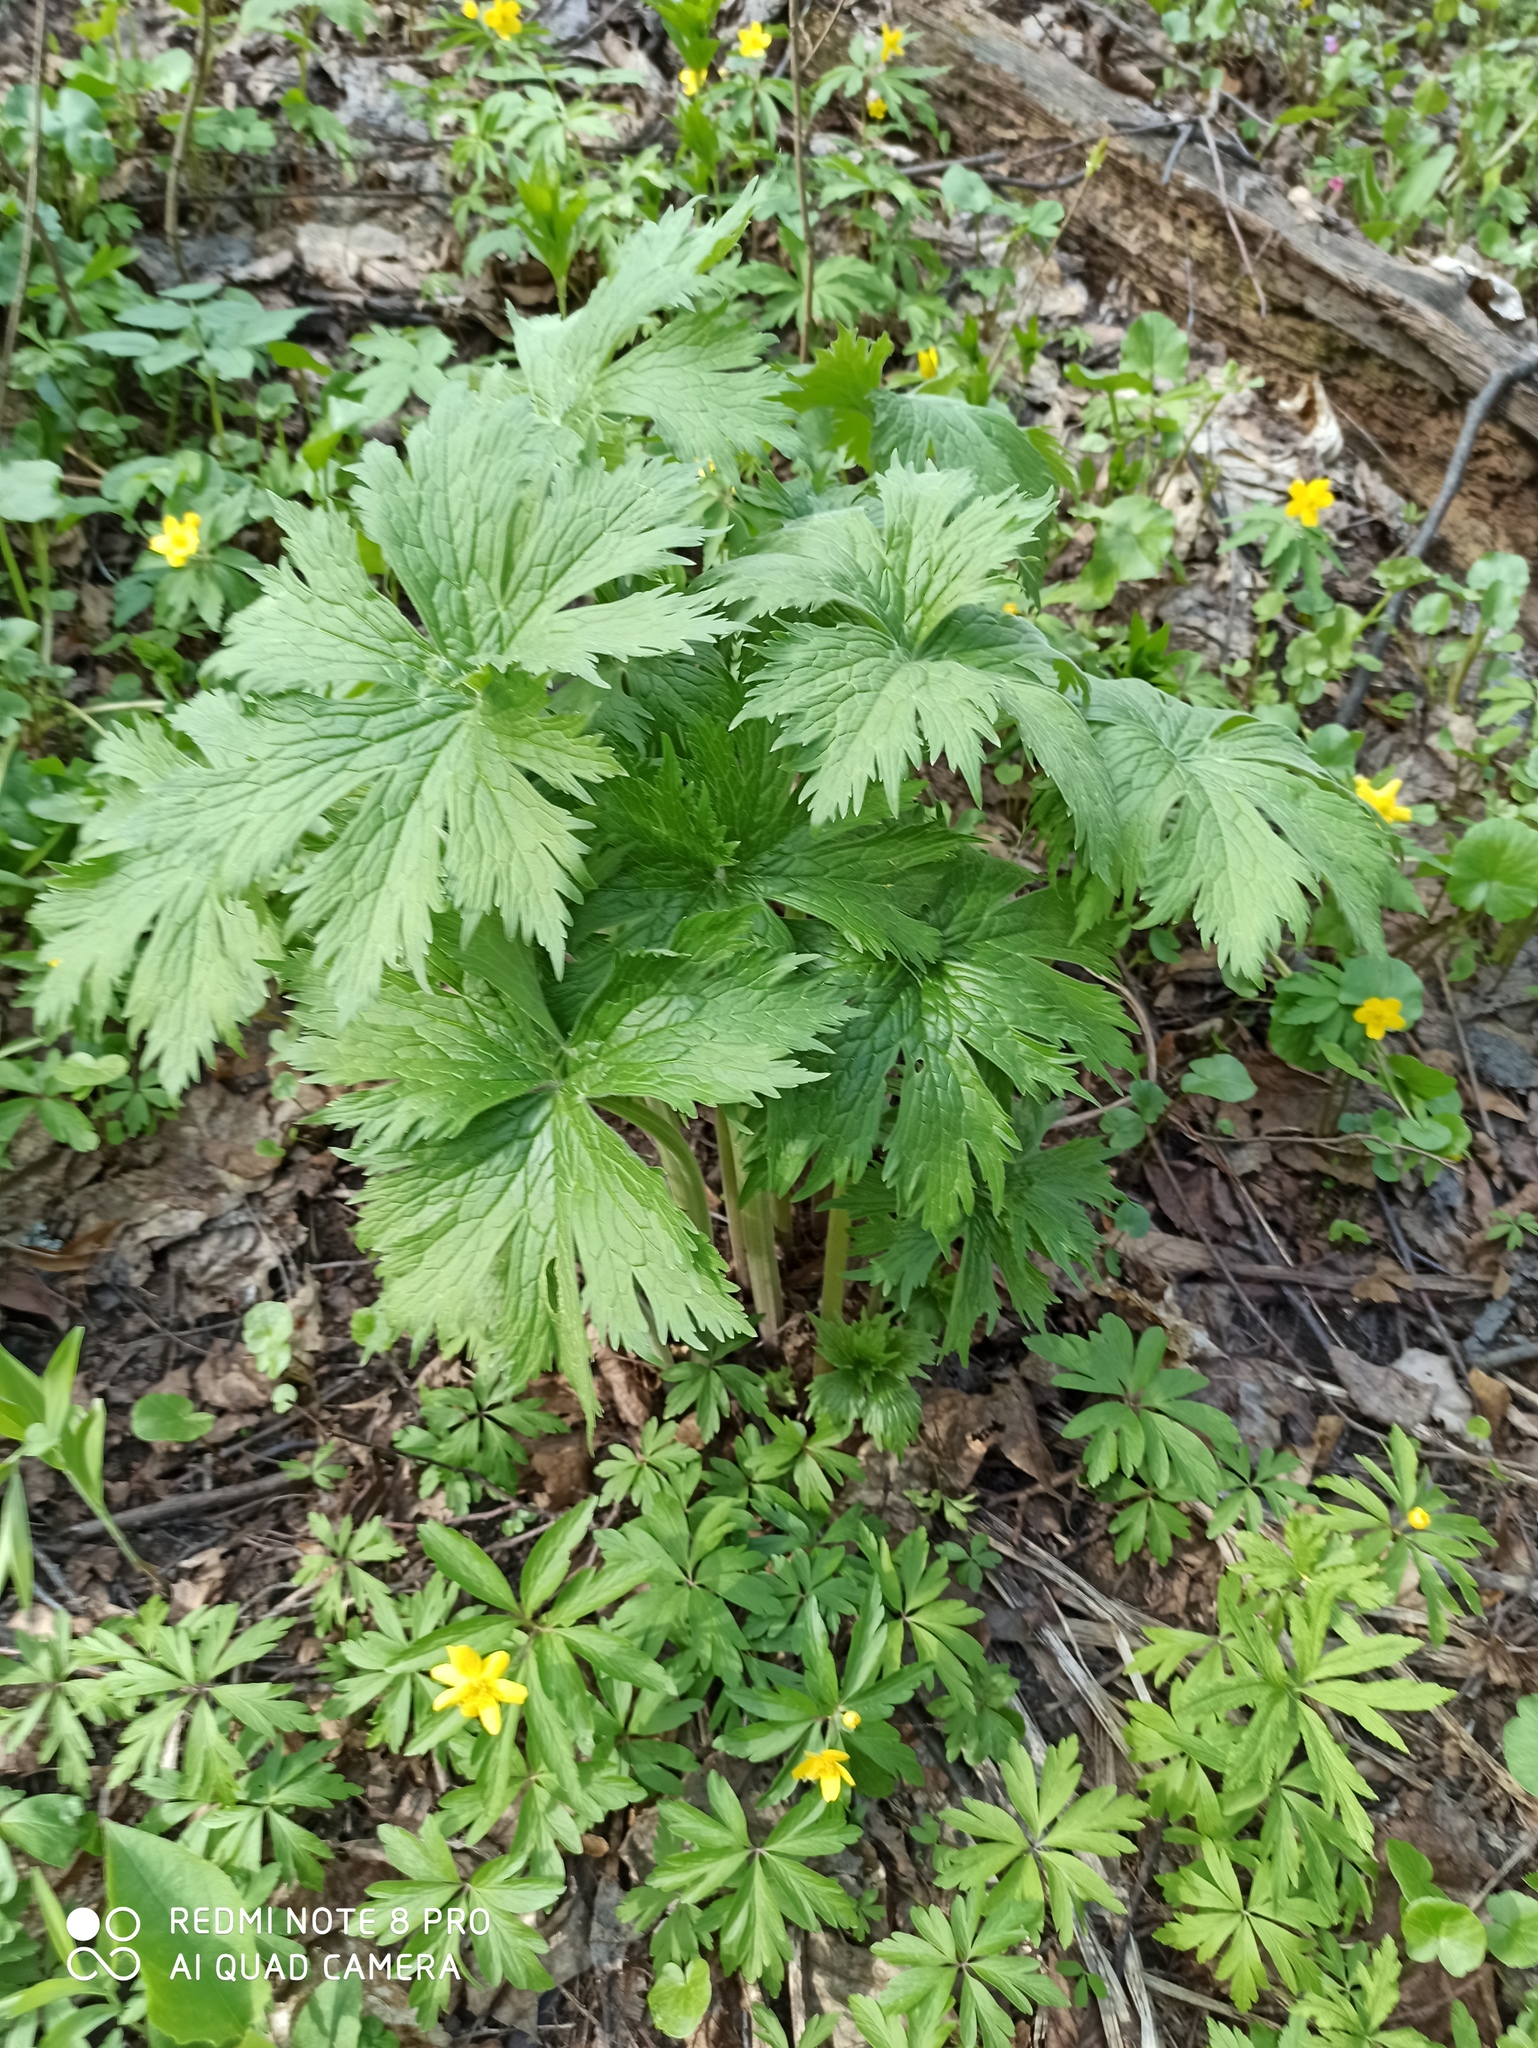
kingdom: Plantae
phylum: Tracheophyta
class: Magnoliopsida
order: Ranunculales
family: Ranunculaceae
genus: Aconitum
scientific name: Aconitum septentrionale
